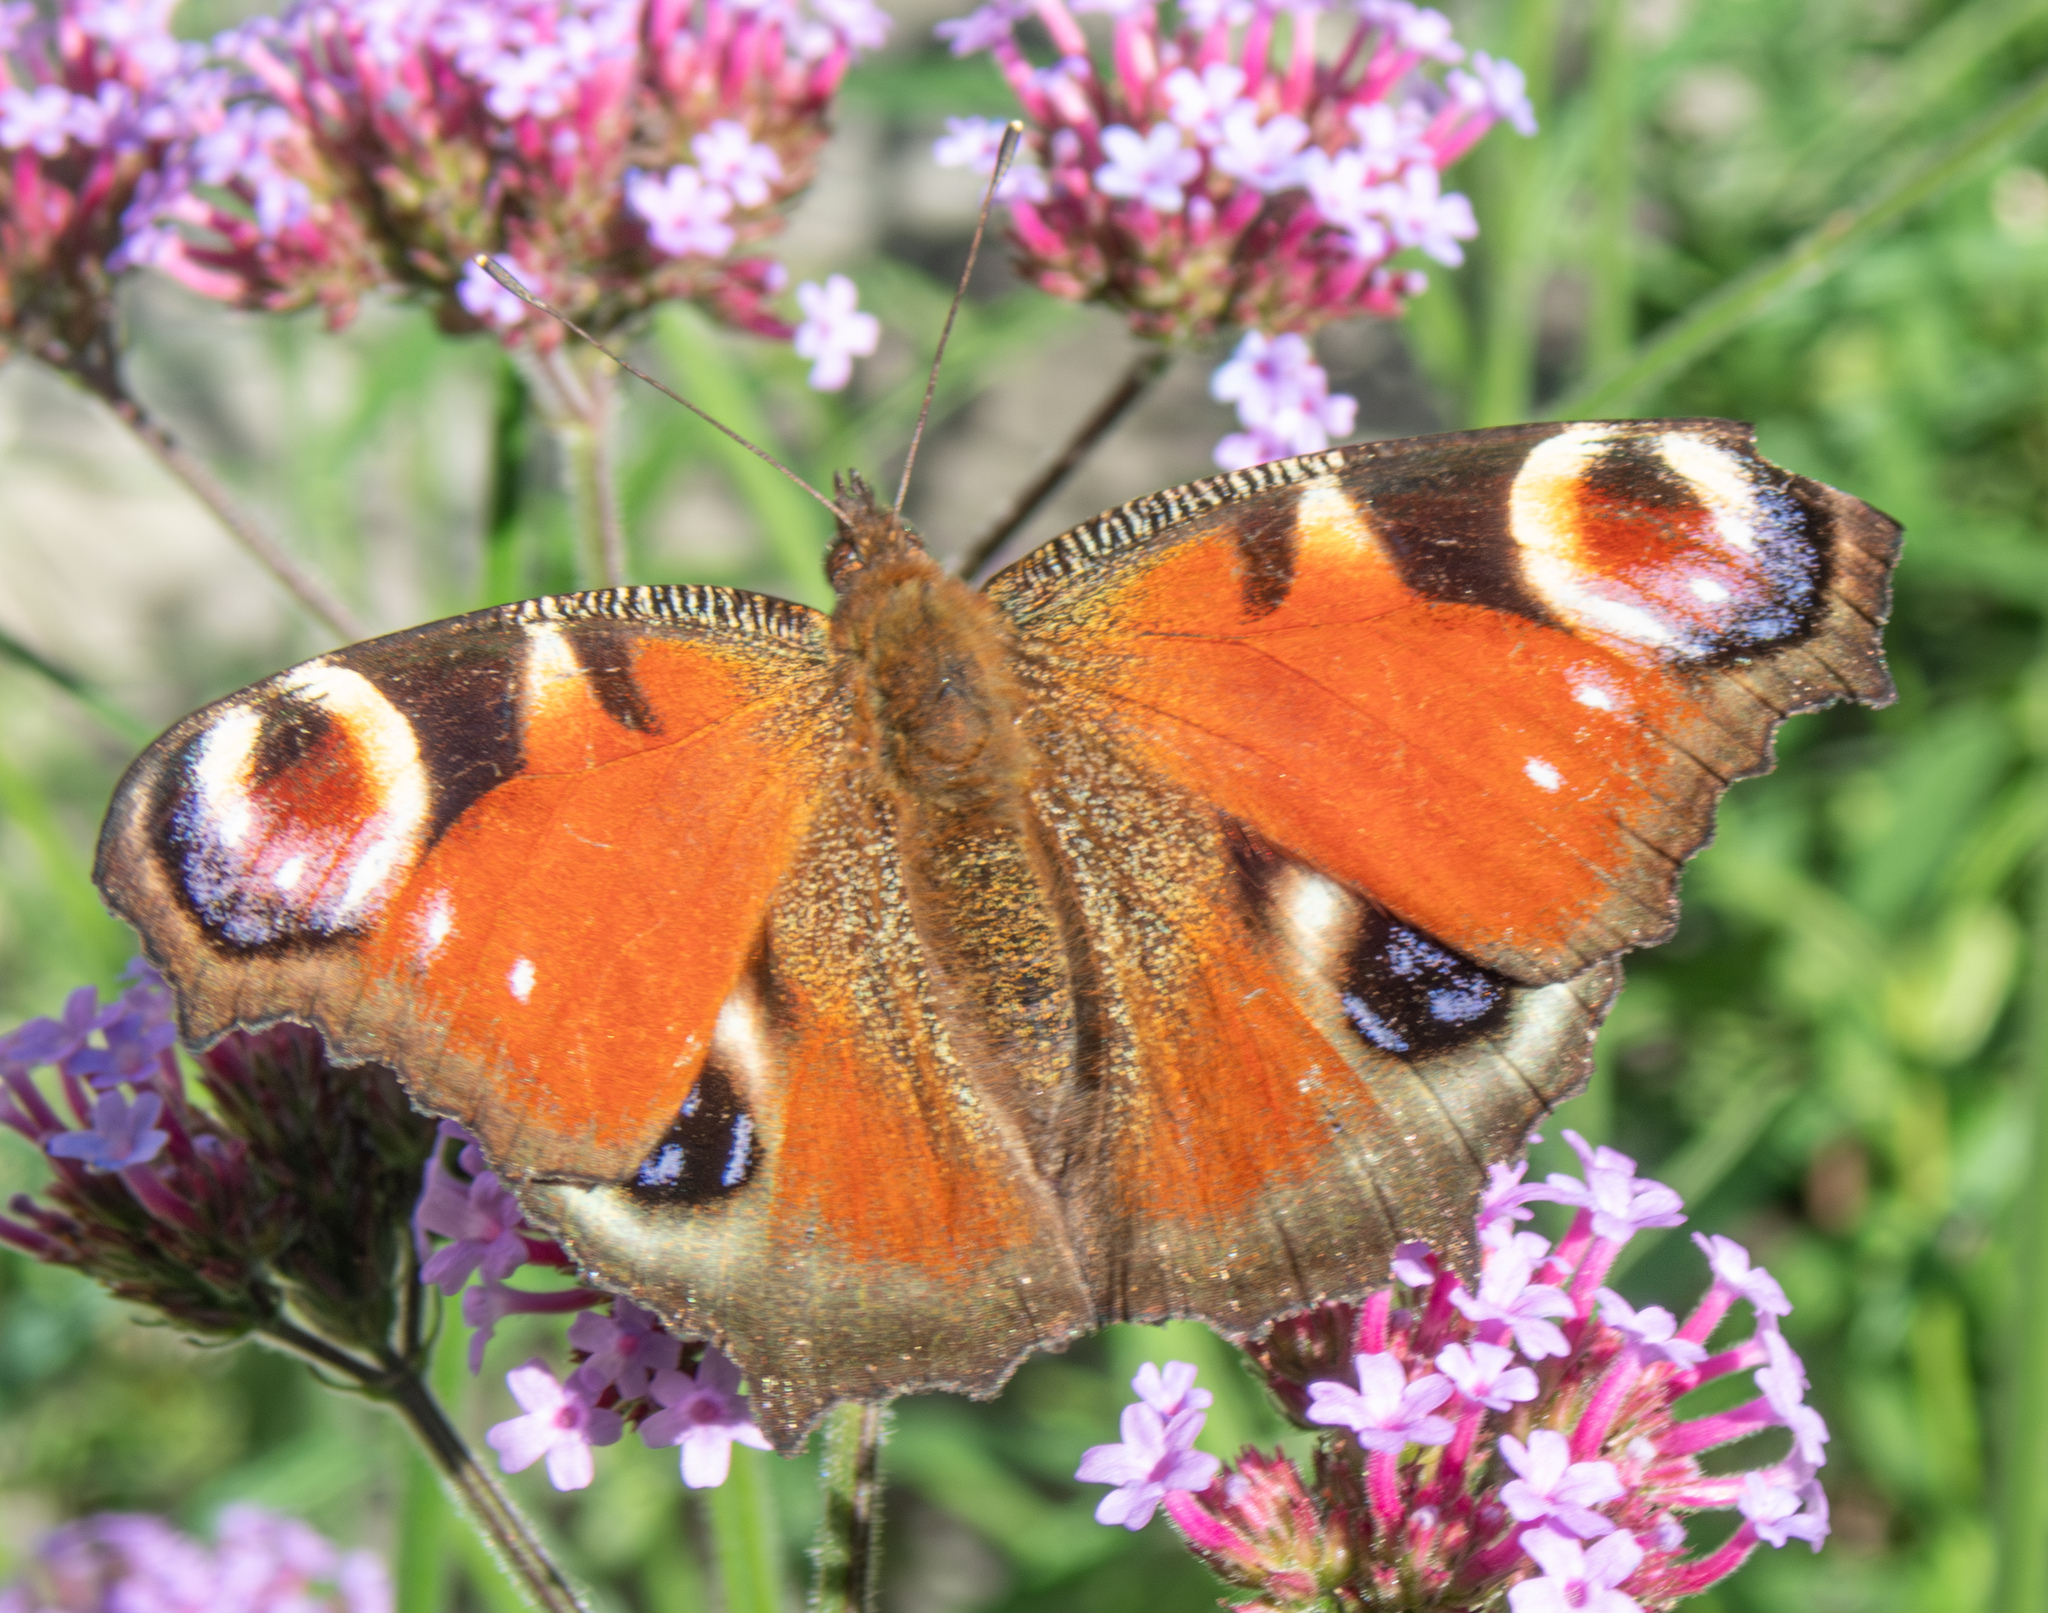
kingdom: Animalia
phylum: Arthropoda
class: Insecta
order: Lepidoptera
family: Nymphalidae
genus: Aglais
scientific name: Aglais io
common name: Peacock
